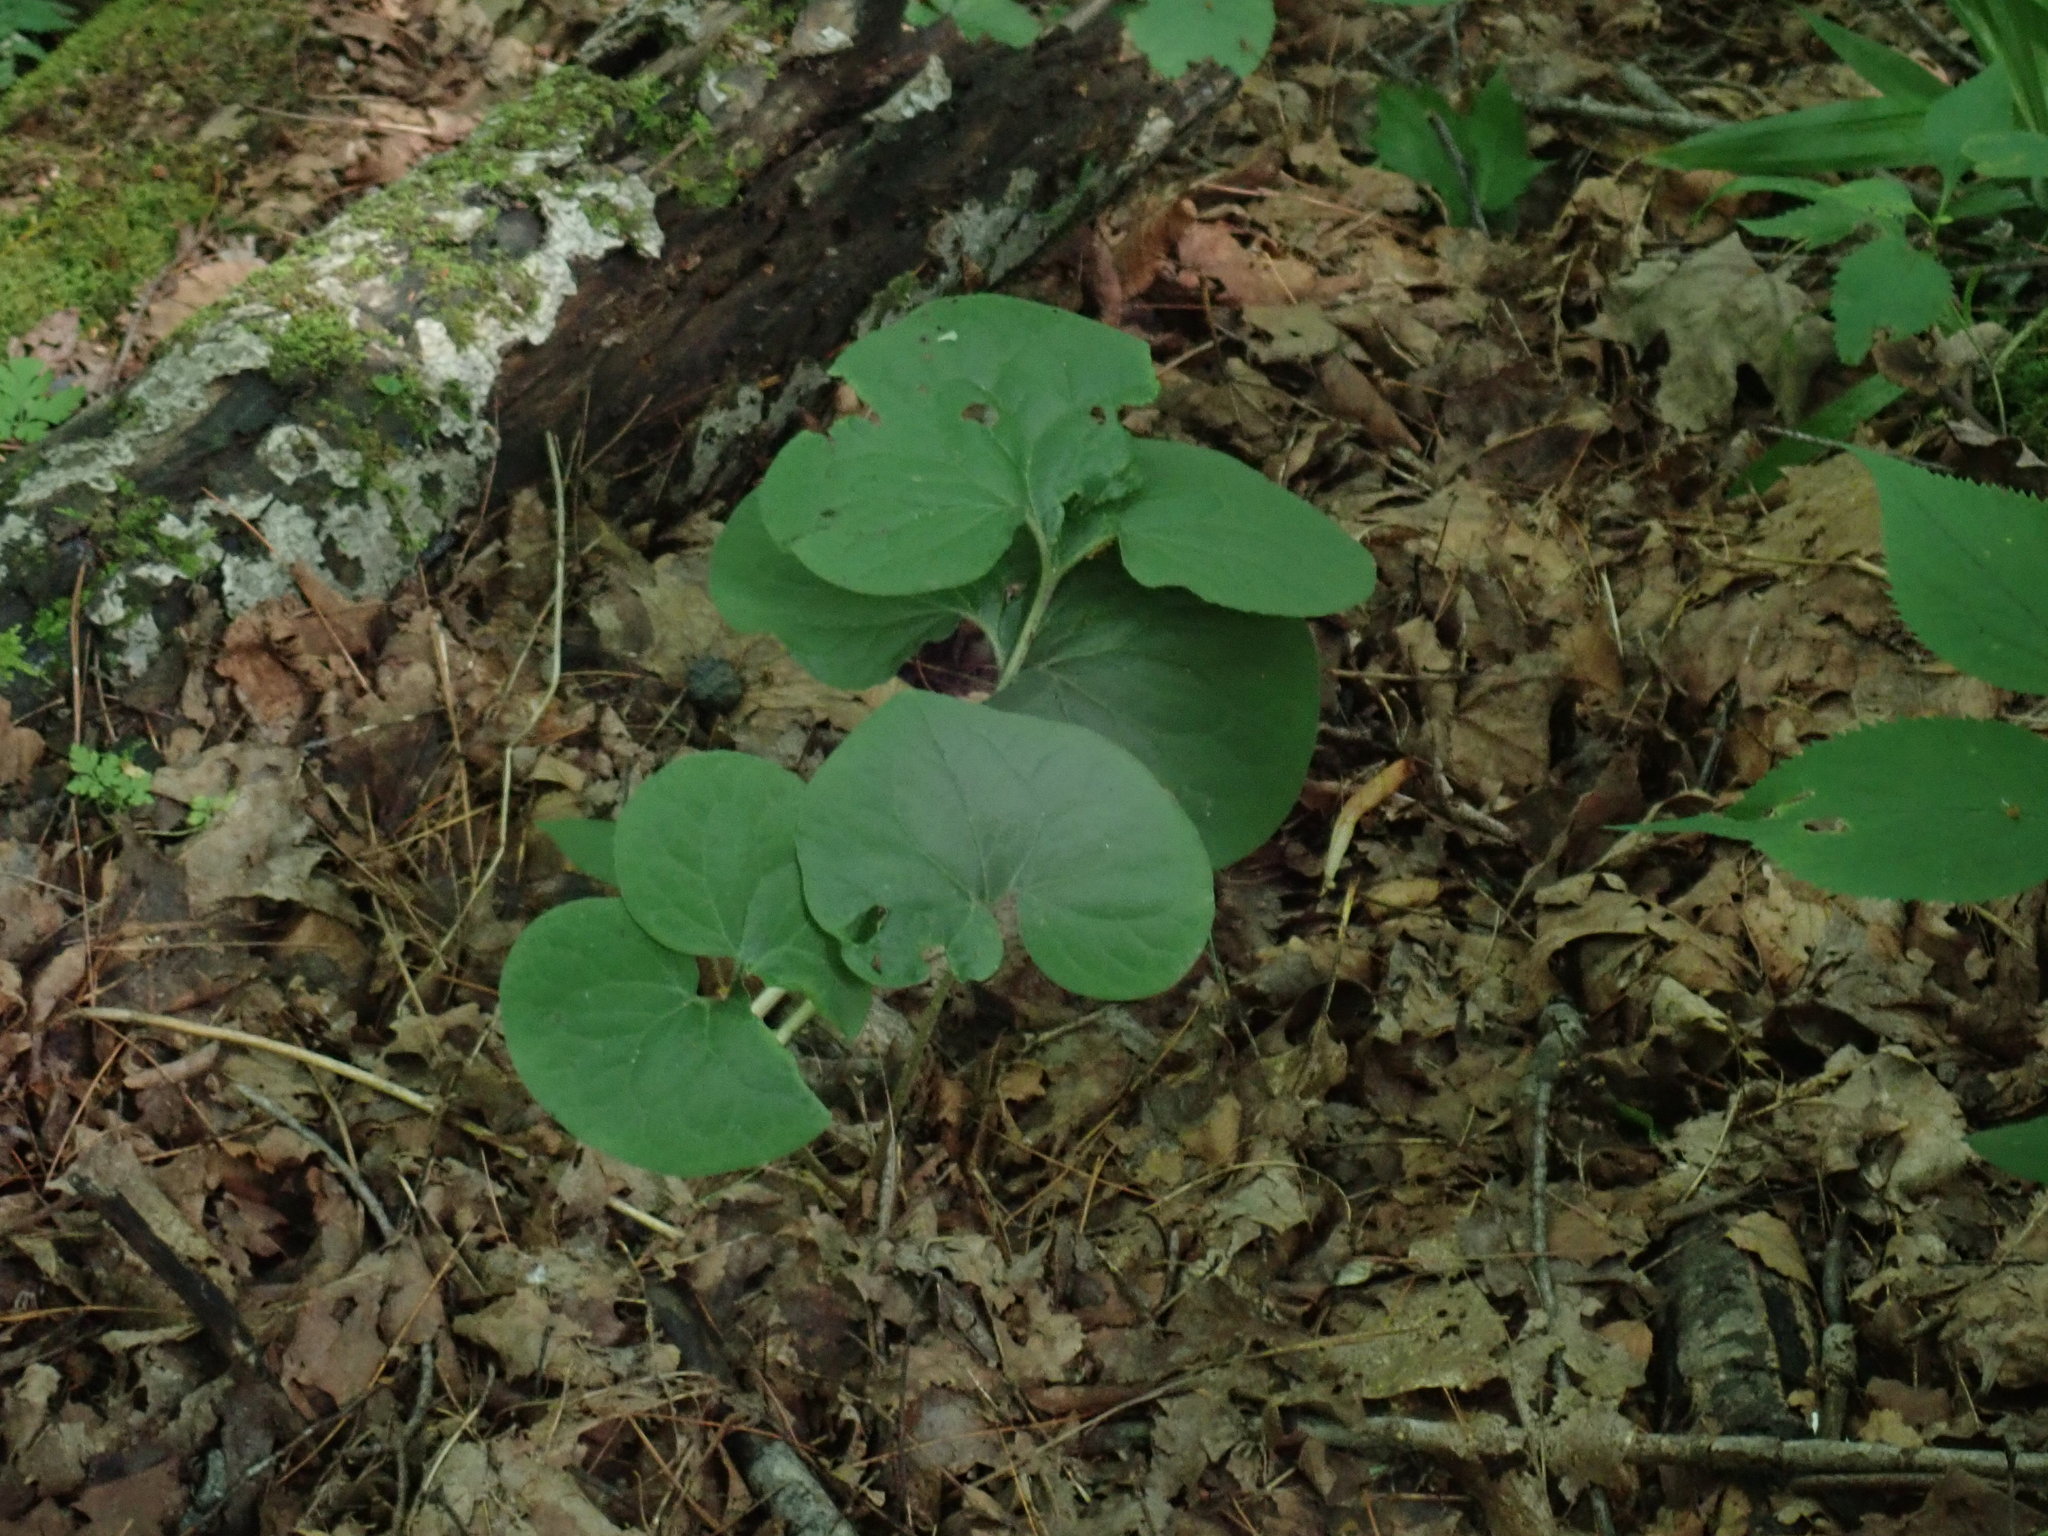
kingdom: Plantae
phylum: Tracheophyta
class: Magnoliopsida
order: Piperales
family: Aristolochiaceae
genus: Asarum
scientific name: Asarum canadense
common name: Wild ginger
